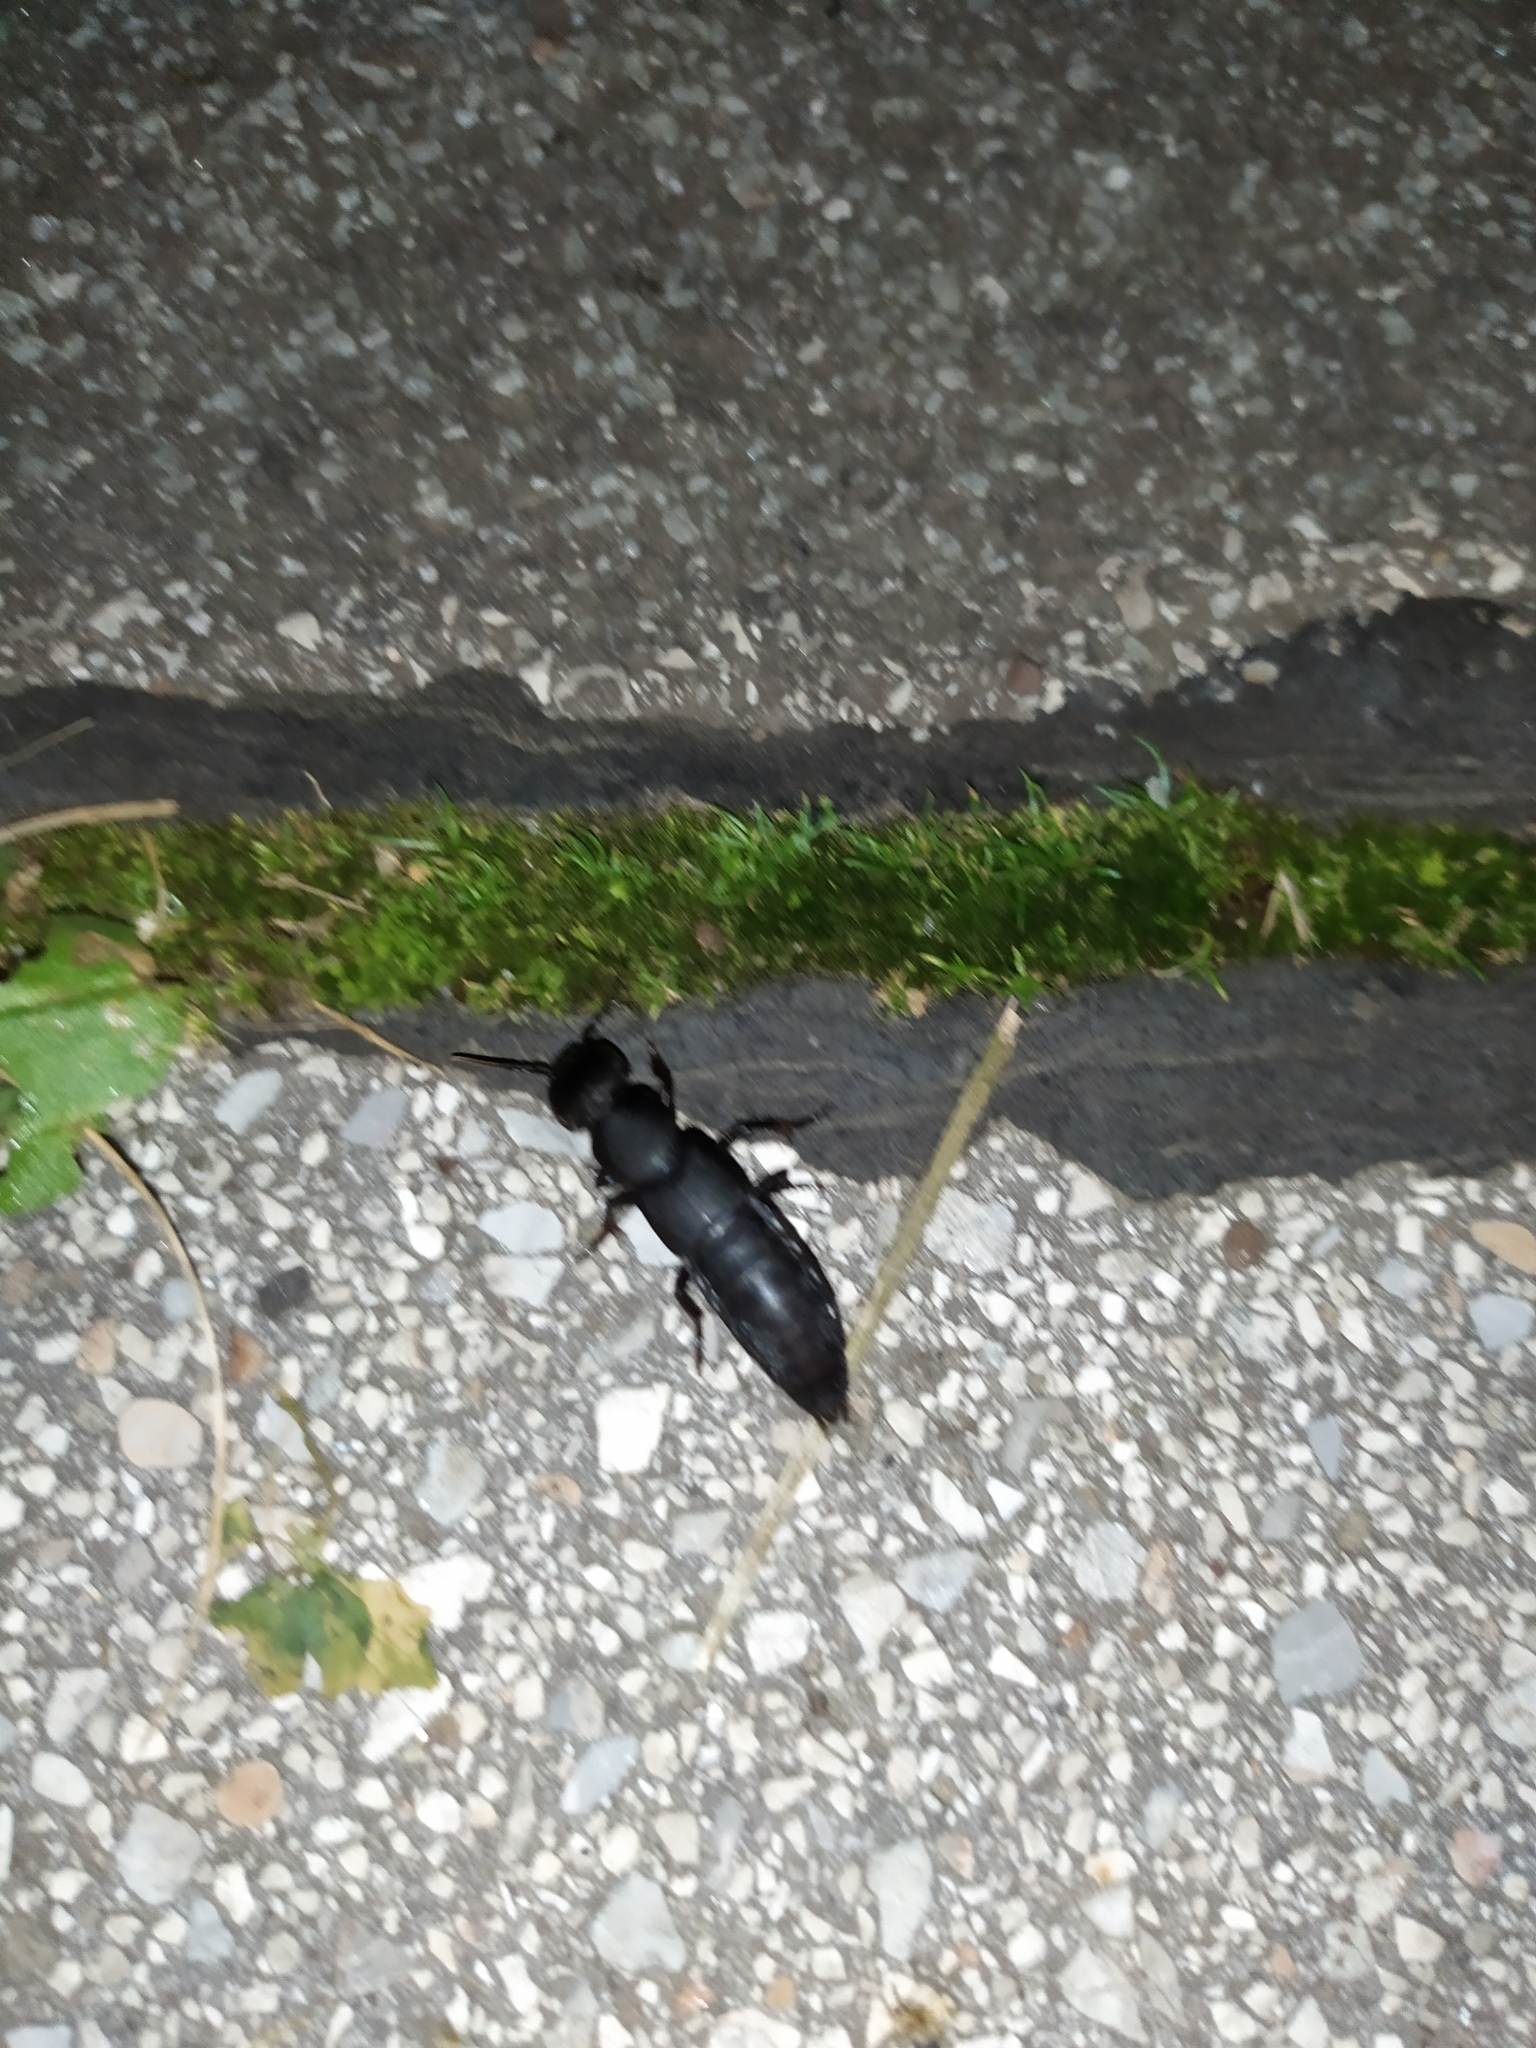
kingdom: Animalia
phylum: Arthropoda
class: Insecta
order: Coleoptera
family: Staphylinidae
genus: Ocypus
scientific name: Ocypus olens
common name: Devil's coach-horse
